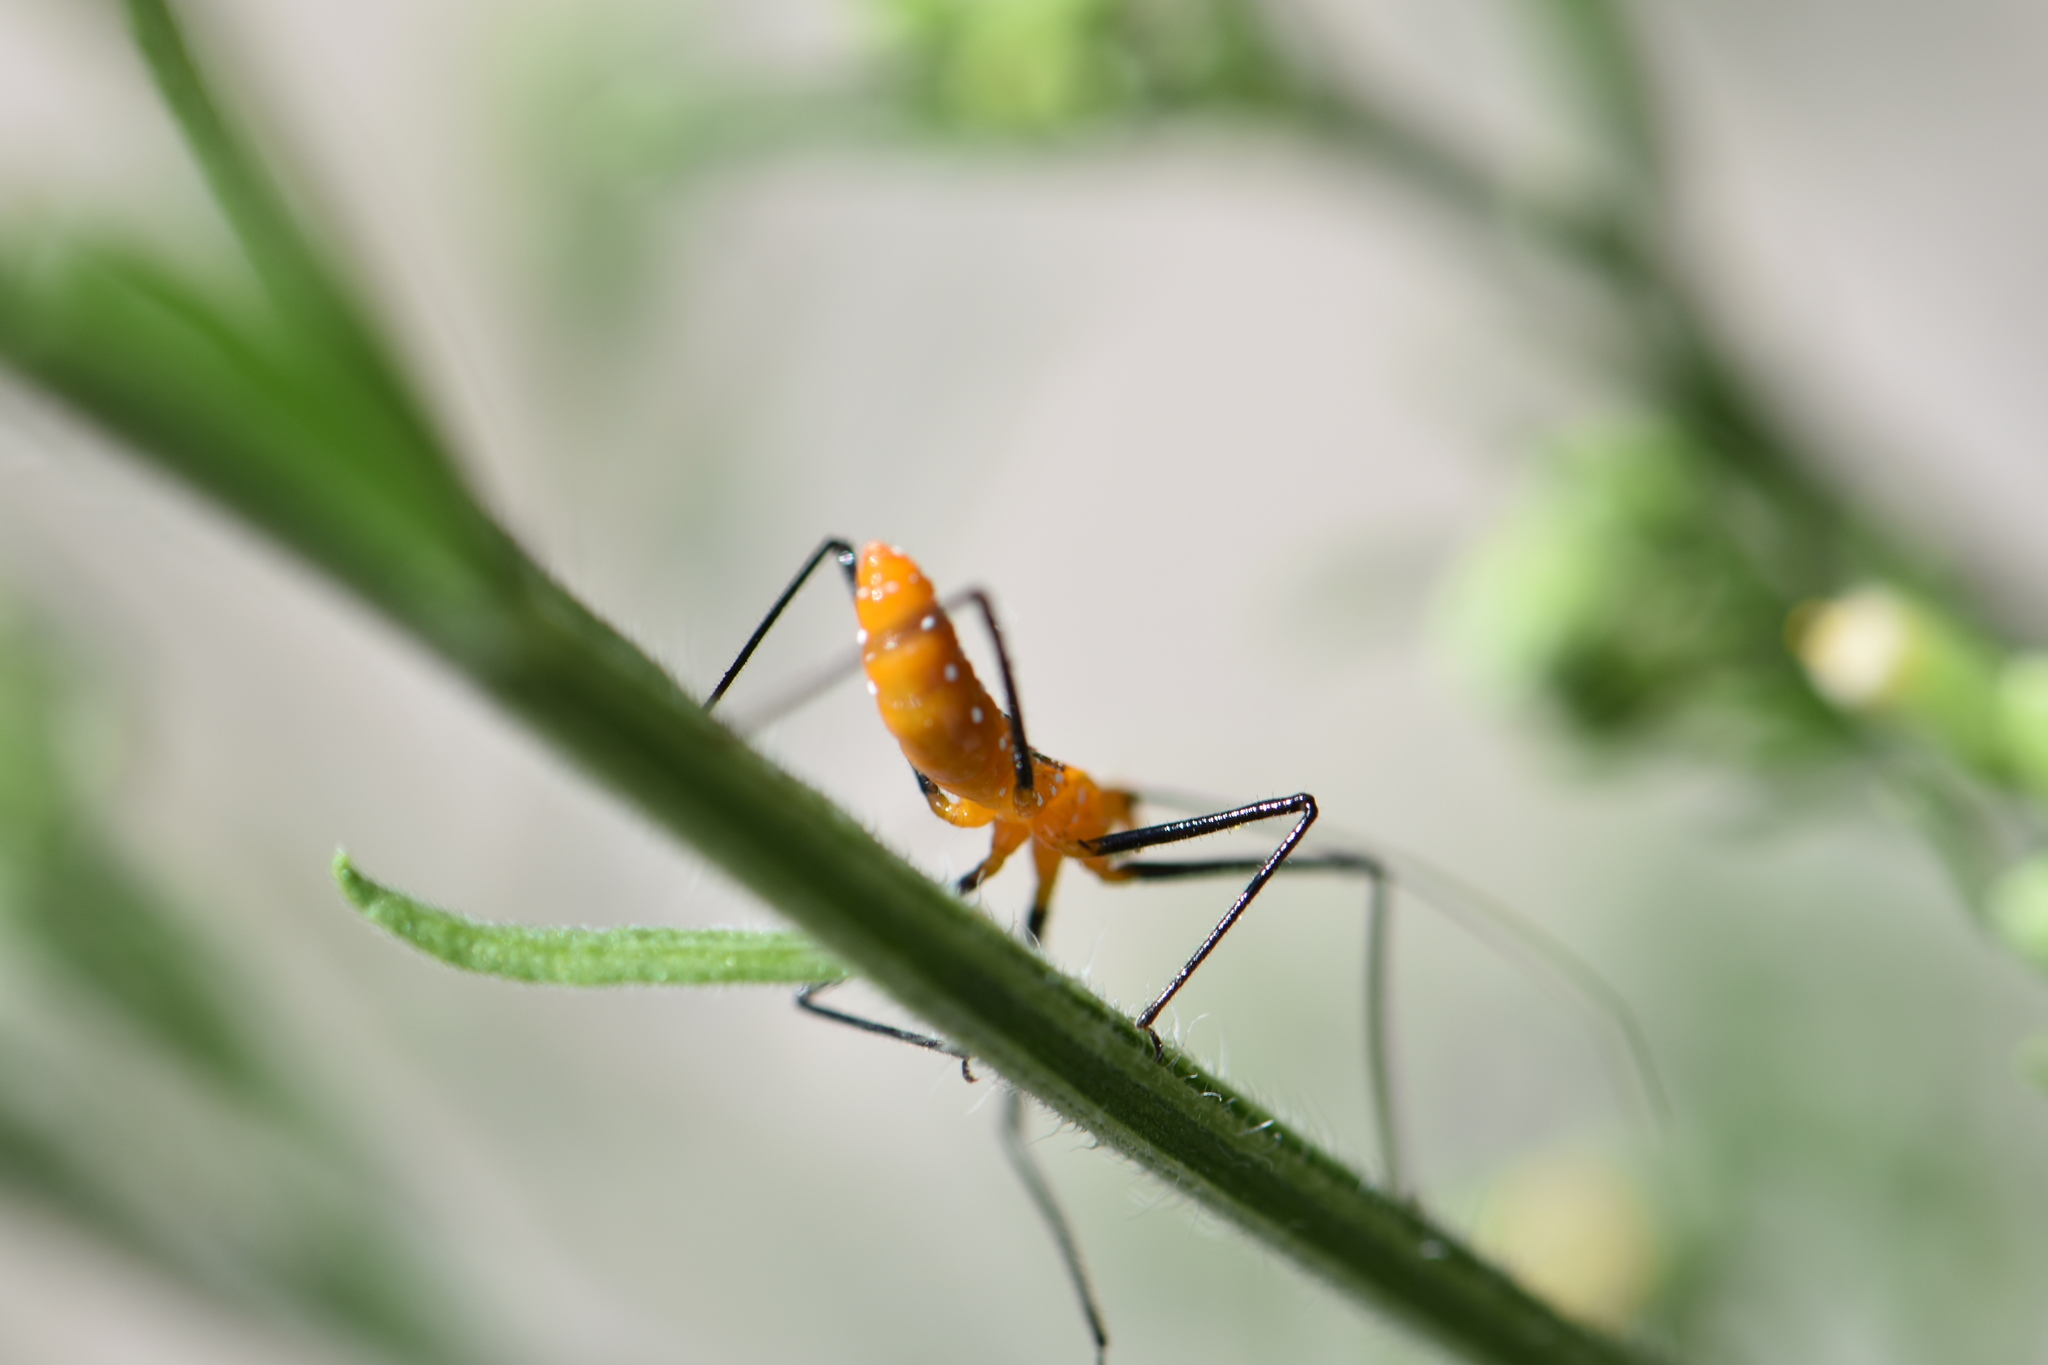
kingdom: Animalia
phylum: Arthropoda
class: Insecta
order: Hemiptera
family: Reduviidae
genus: Zelus
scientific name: Zelus longipes
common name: Milkweed assassin bug
